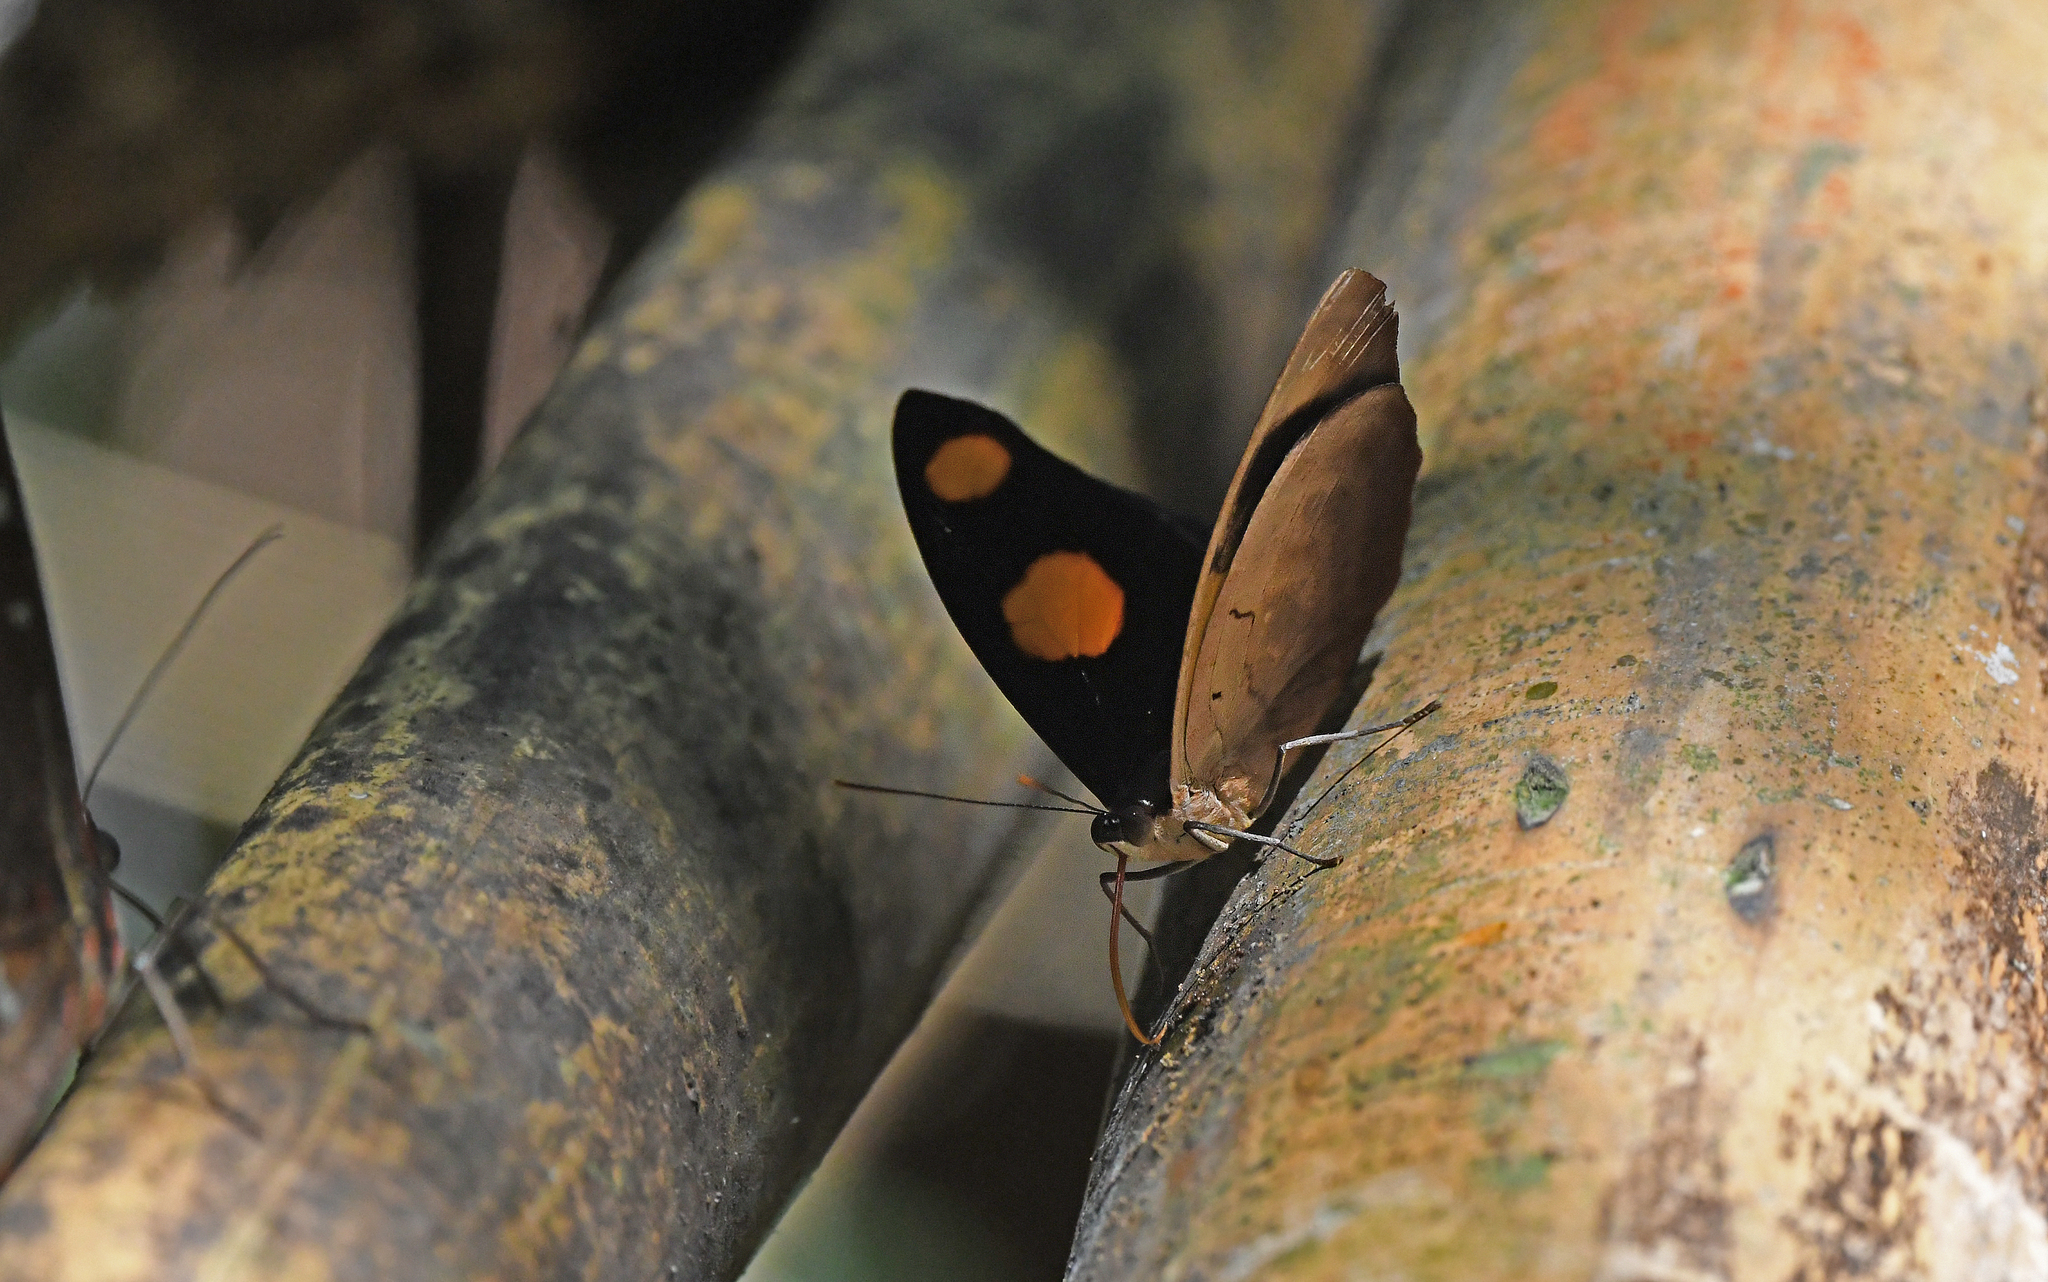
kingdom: Animalia
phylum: Arthropoda
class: Insecta
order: Lepidoptera
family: Nymphalidae
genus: Catonephele
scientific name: Catonephele numilia
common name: Blue-frosted banner
